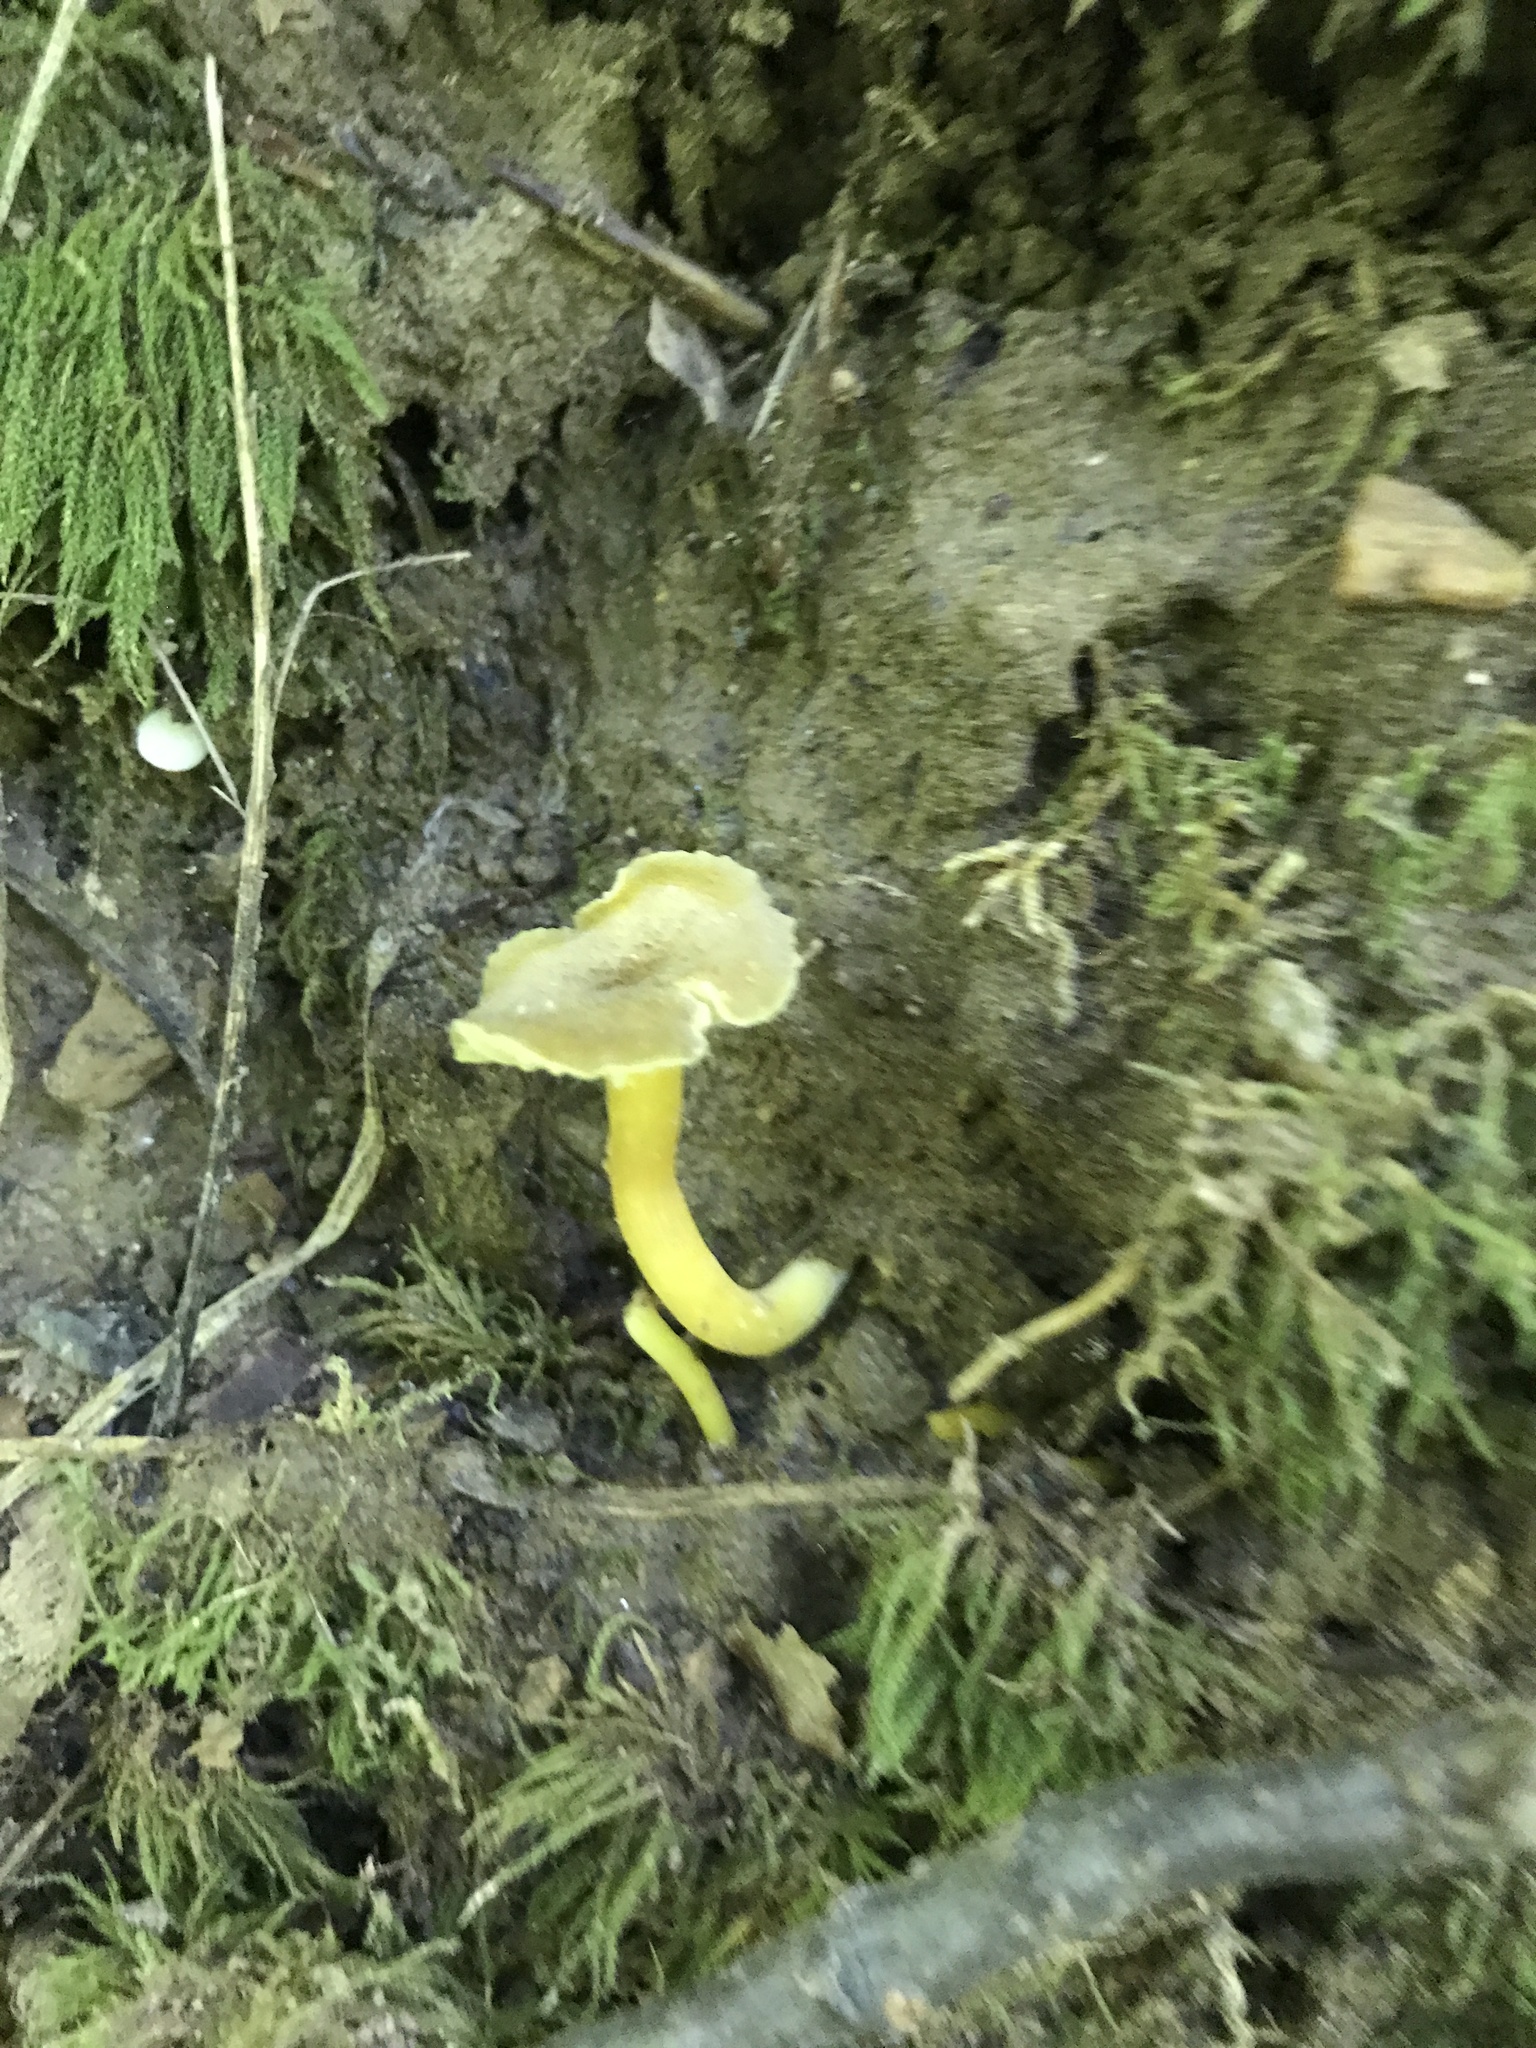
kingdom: Fungi
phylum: Basidiomycota
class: Agaricomycetes
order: Agaricales
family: Hygrophoraceae
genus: Hygrocybe
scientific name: Hygrocybe caespitosa
